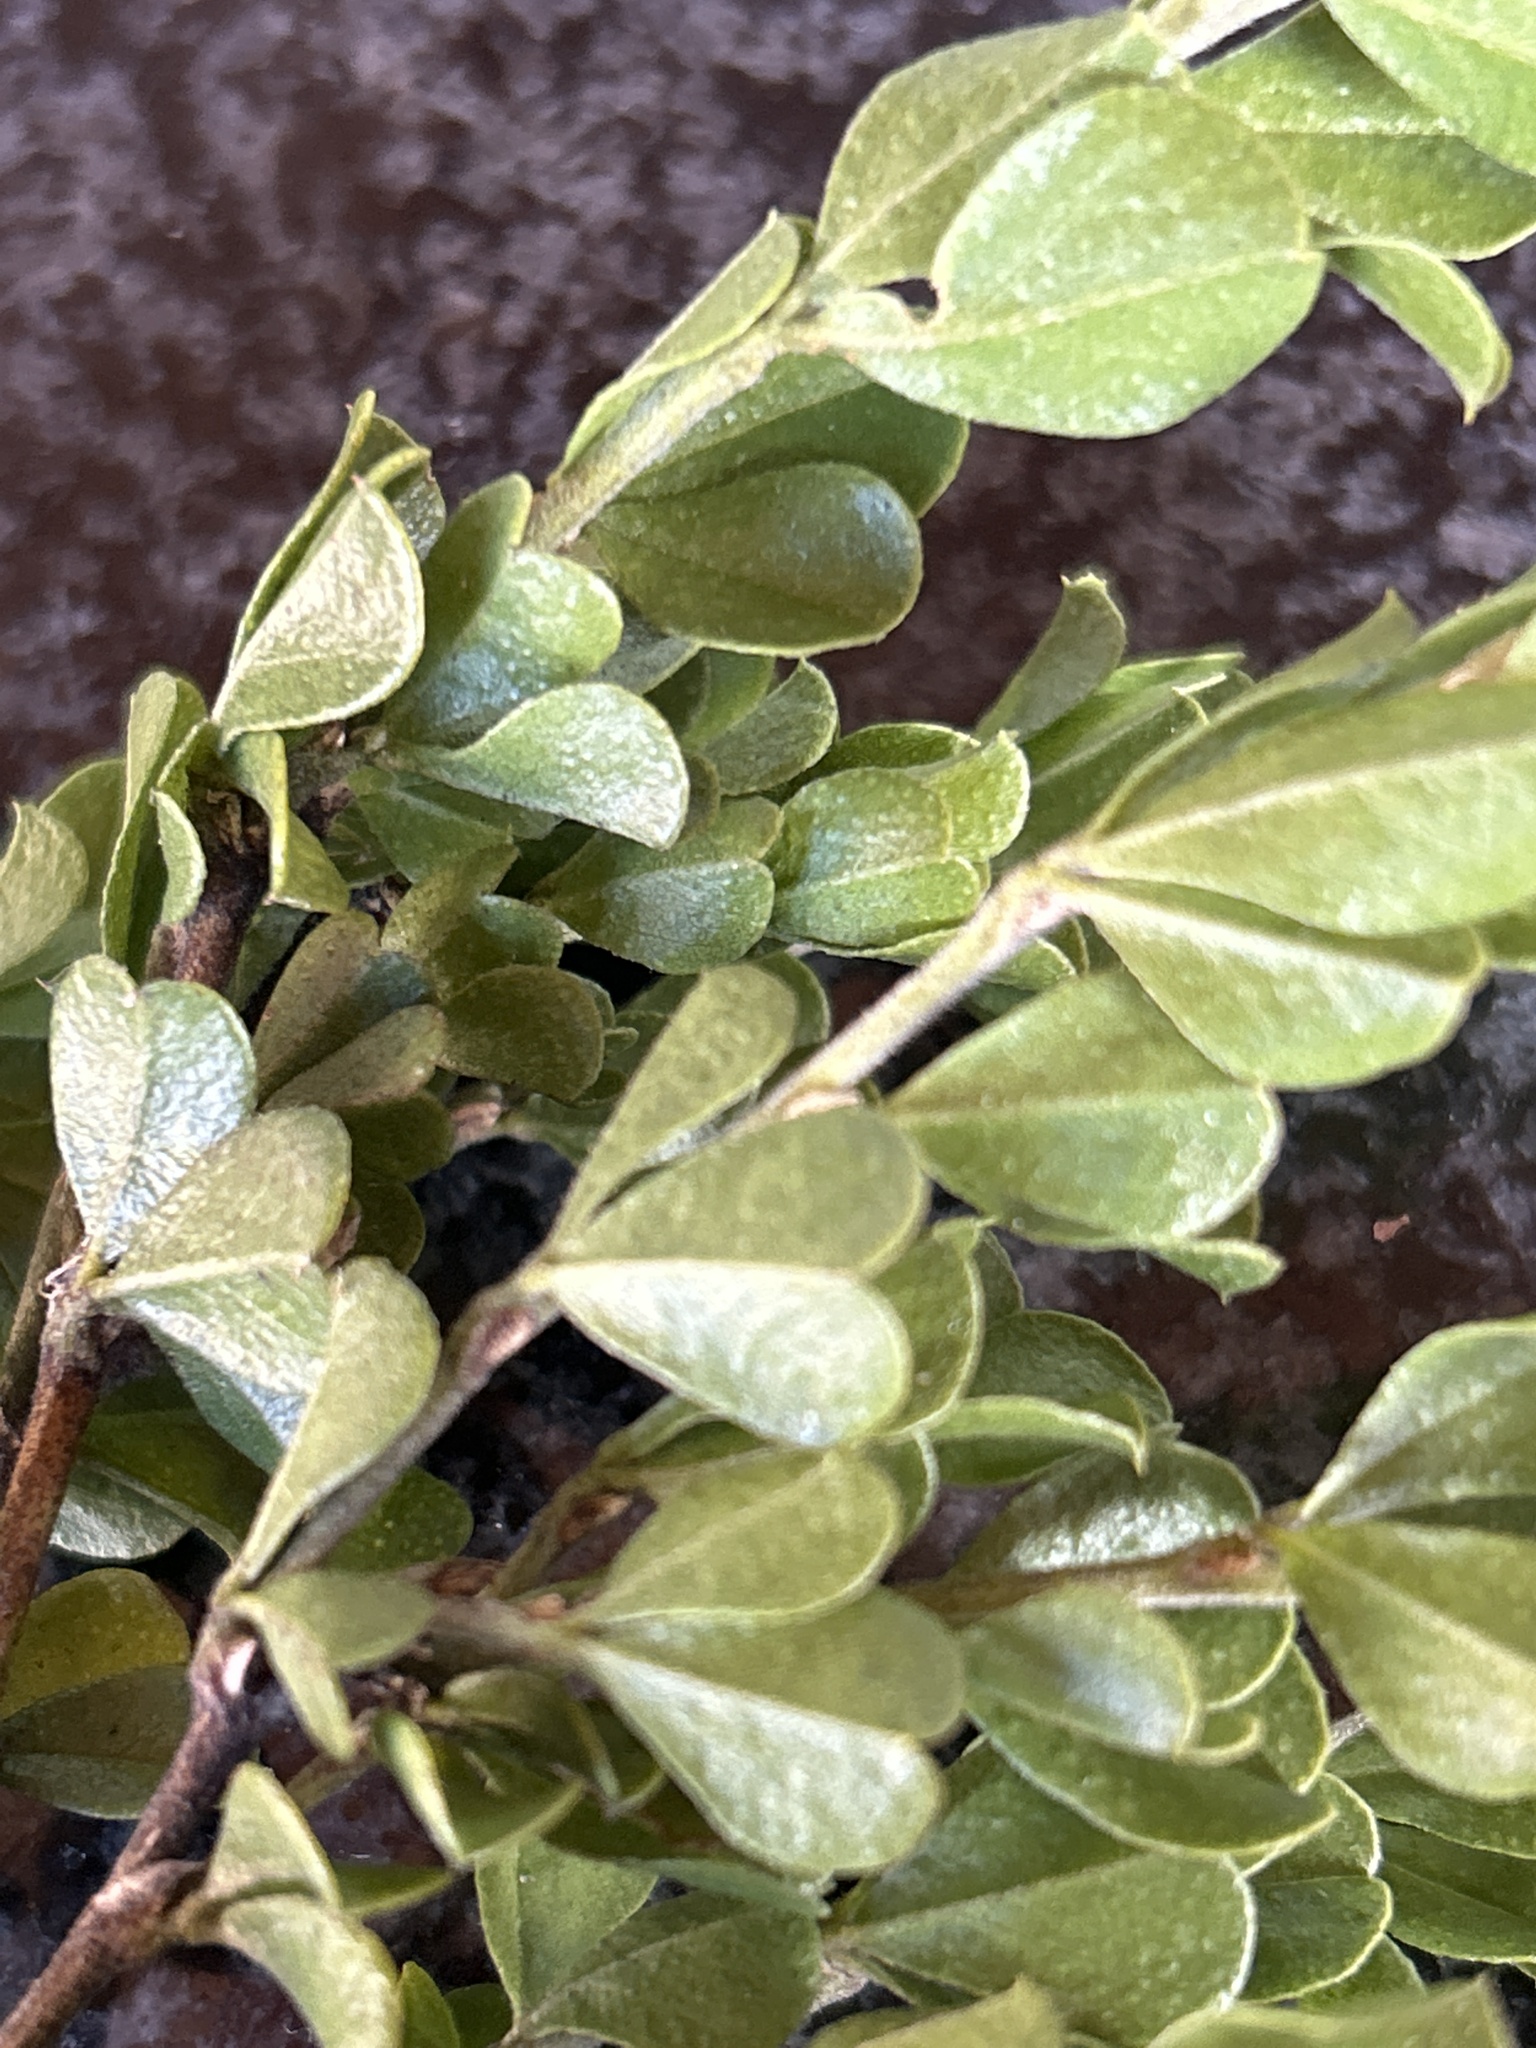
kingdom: Plantae
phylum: Tracheophyta
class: Magnoliopsida
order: Fabales
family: Fabaceae
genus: Psoralea
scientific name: Psoralea bracteolata
